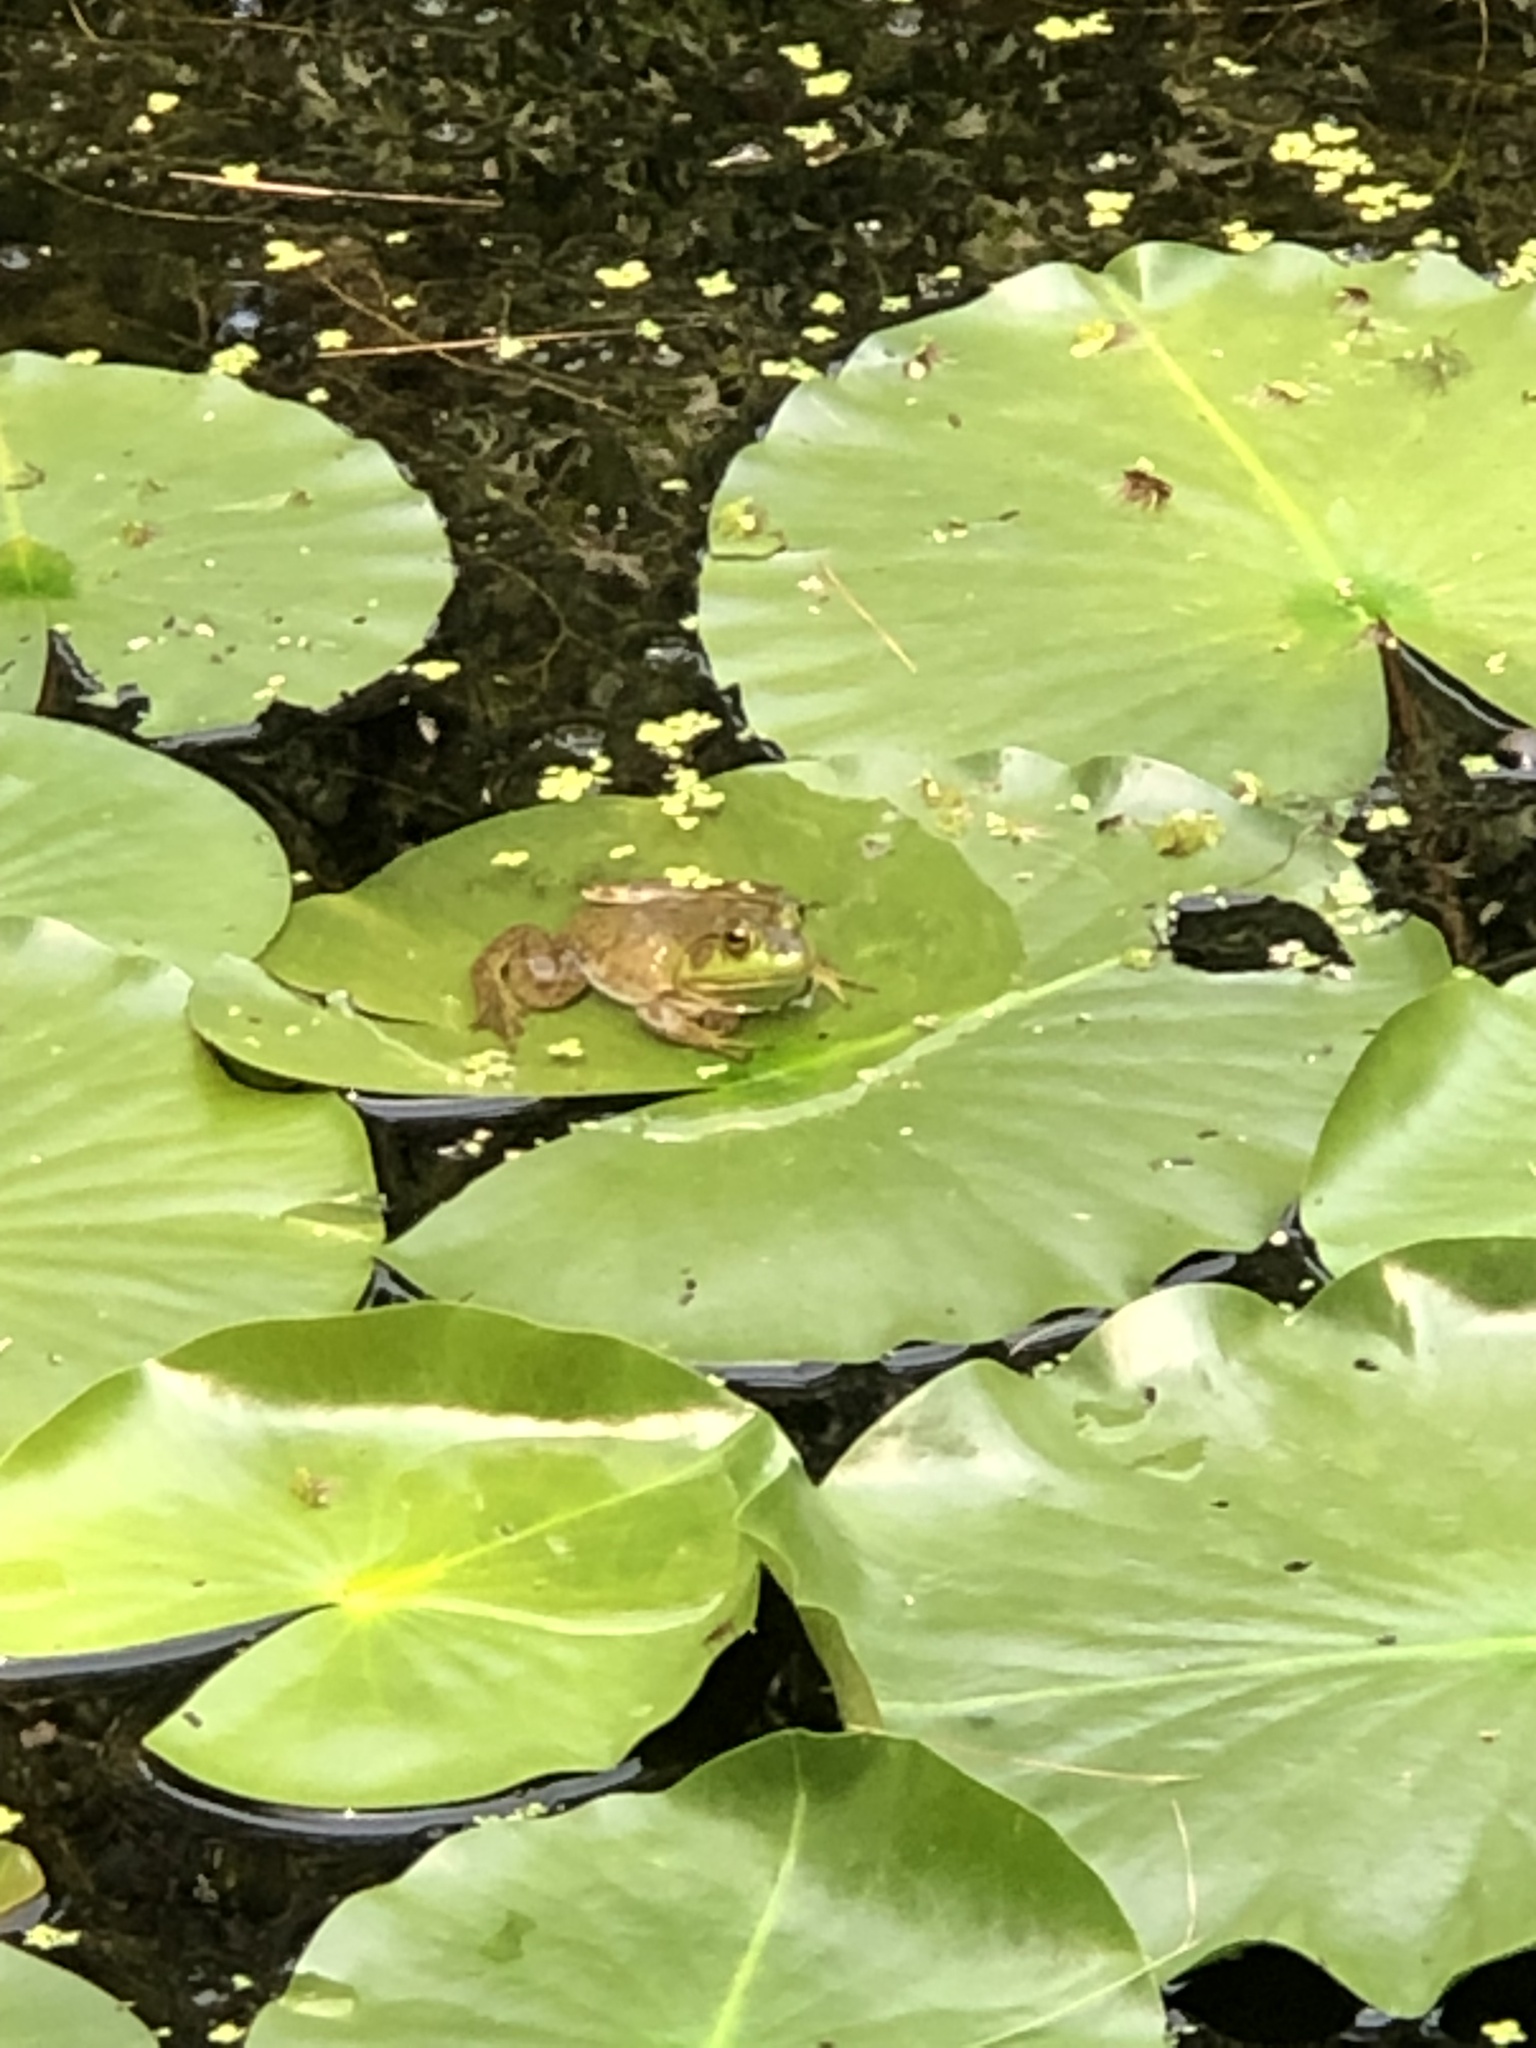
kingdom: Animalia
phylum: Chordata
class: Amphibia
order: Anura
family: Ranidae
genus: Lithobates
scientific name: Lithobates catesbeianus
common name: American bullfrog
